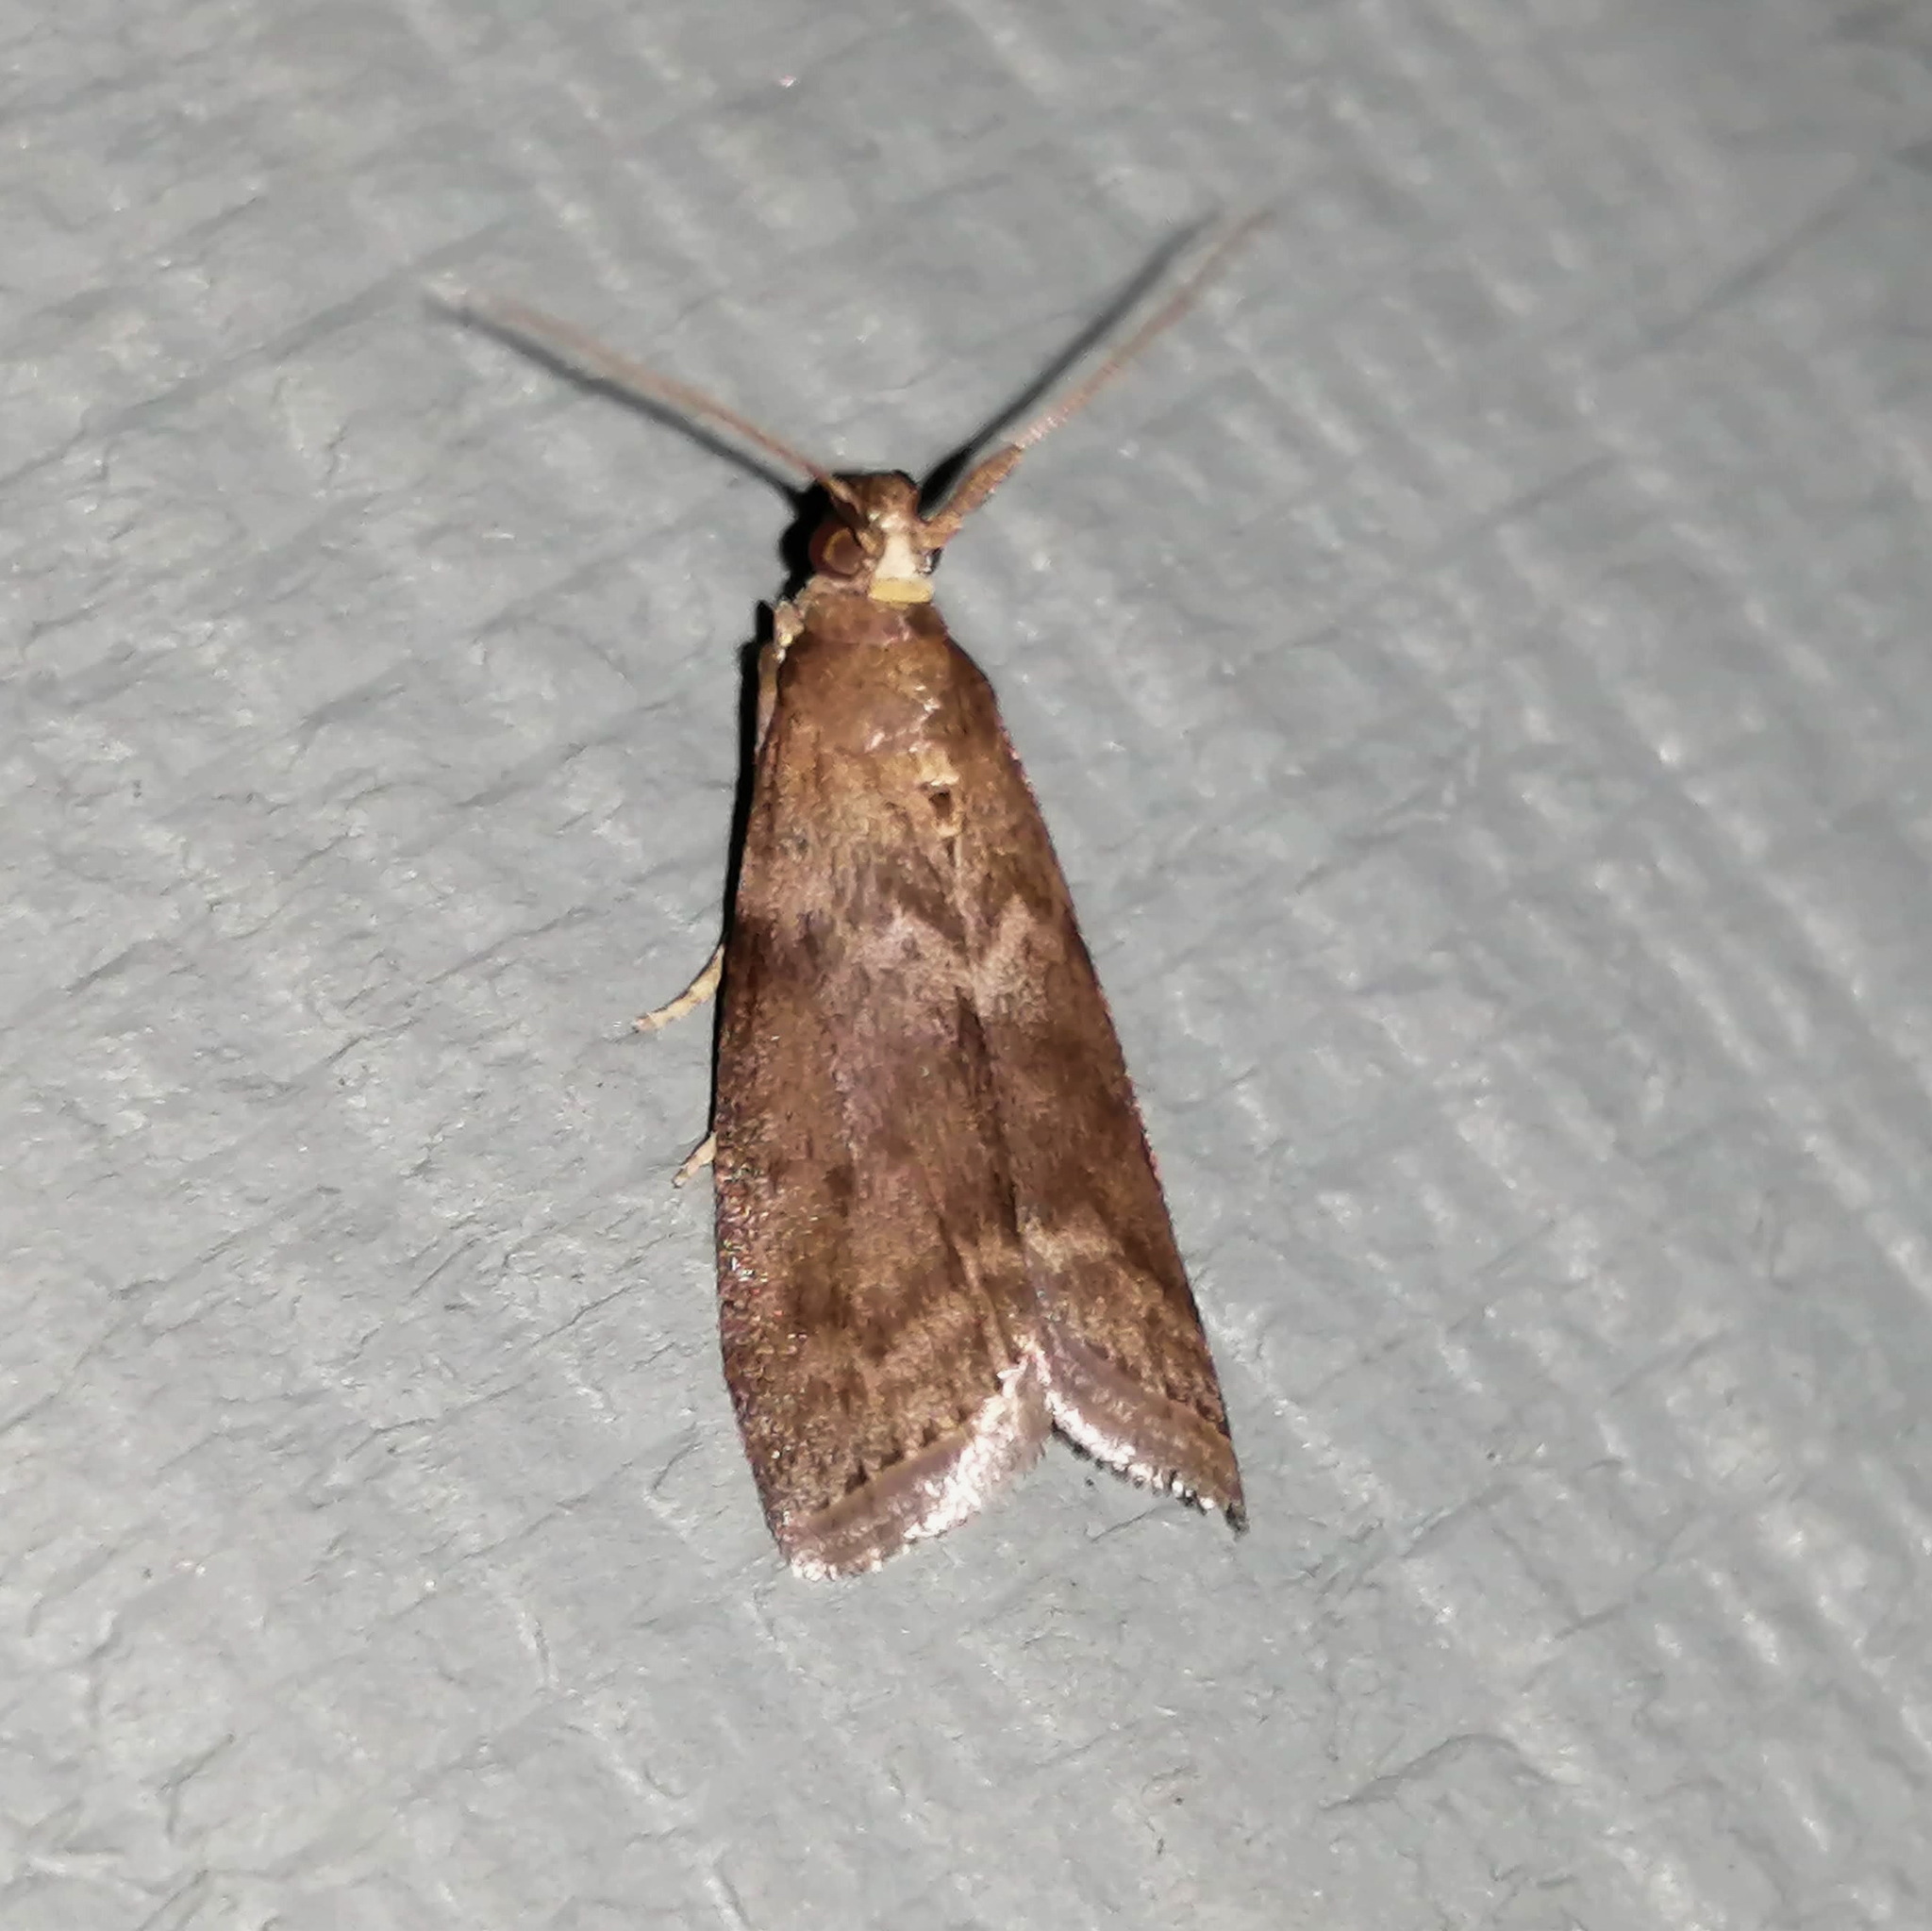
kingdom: Animalia
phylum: Arthropoda
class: Insecta
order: Lepidoptera
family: Pyralidae
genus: Oreana
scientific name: Oreana unicolorella
